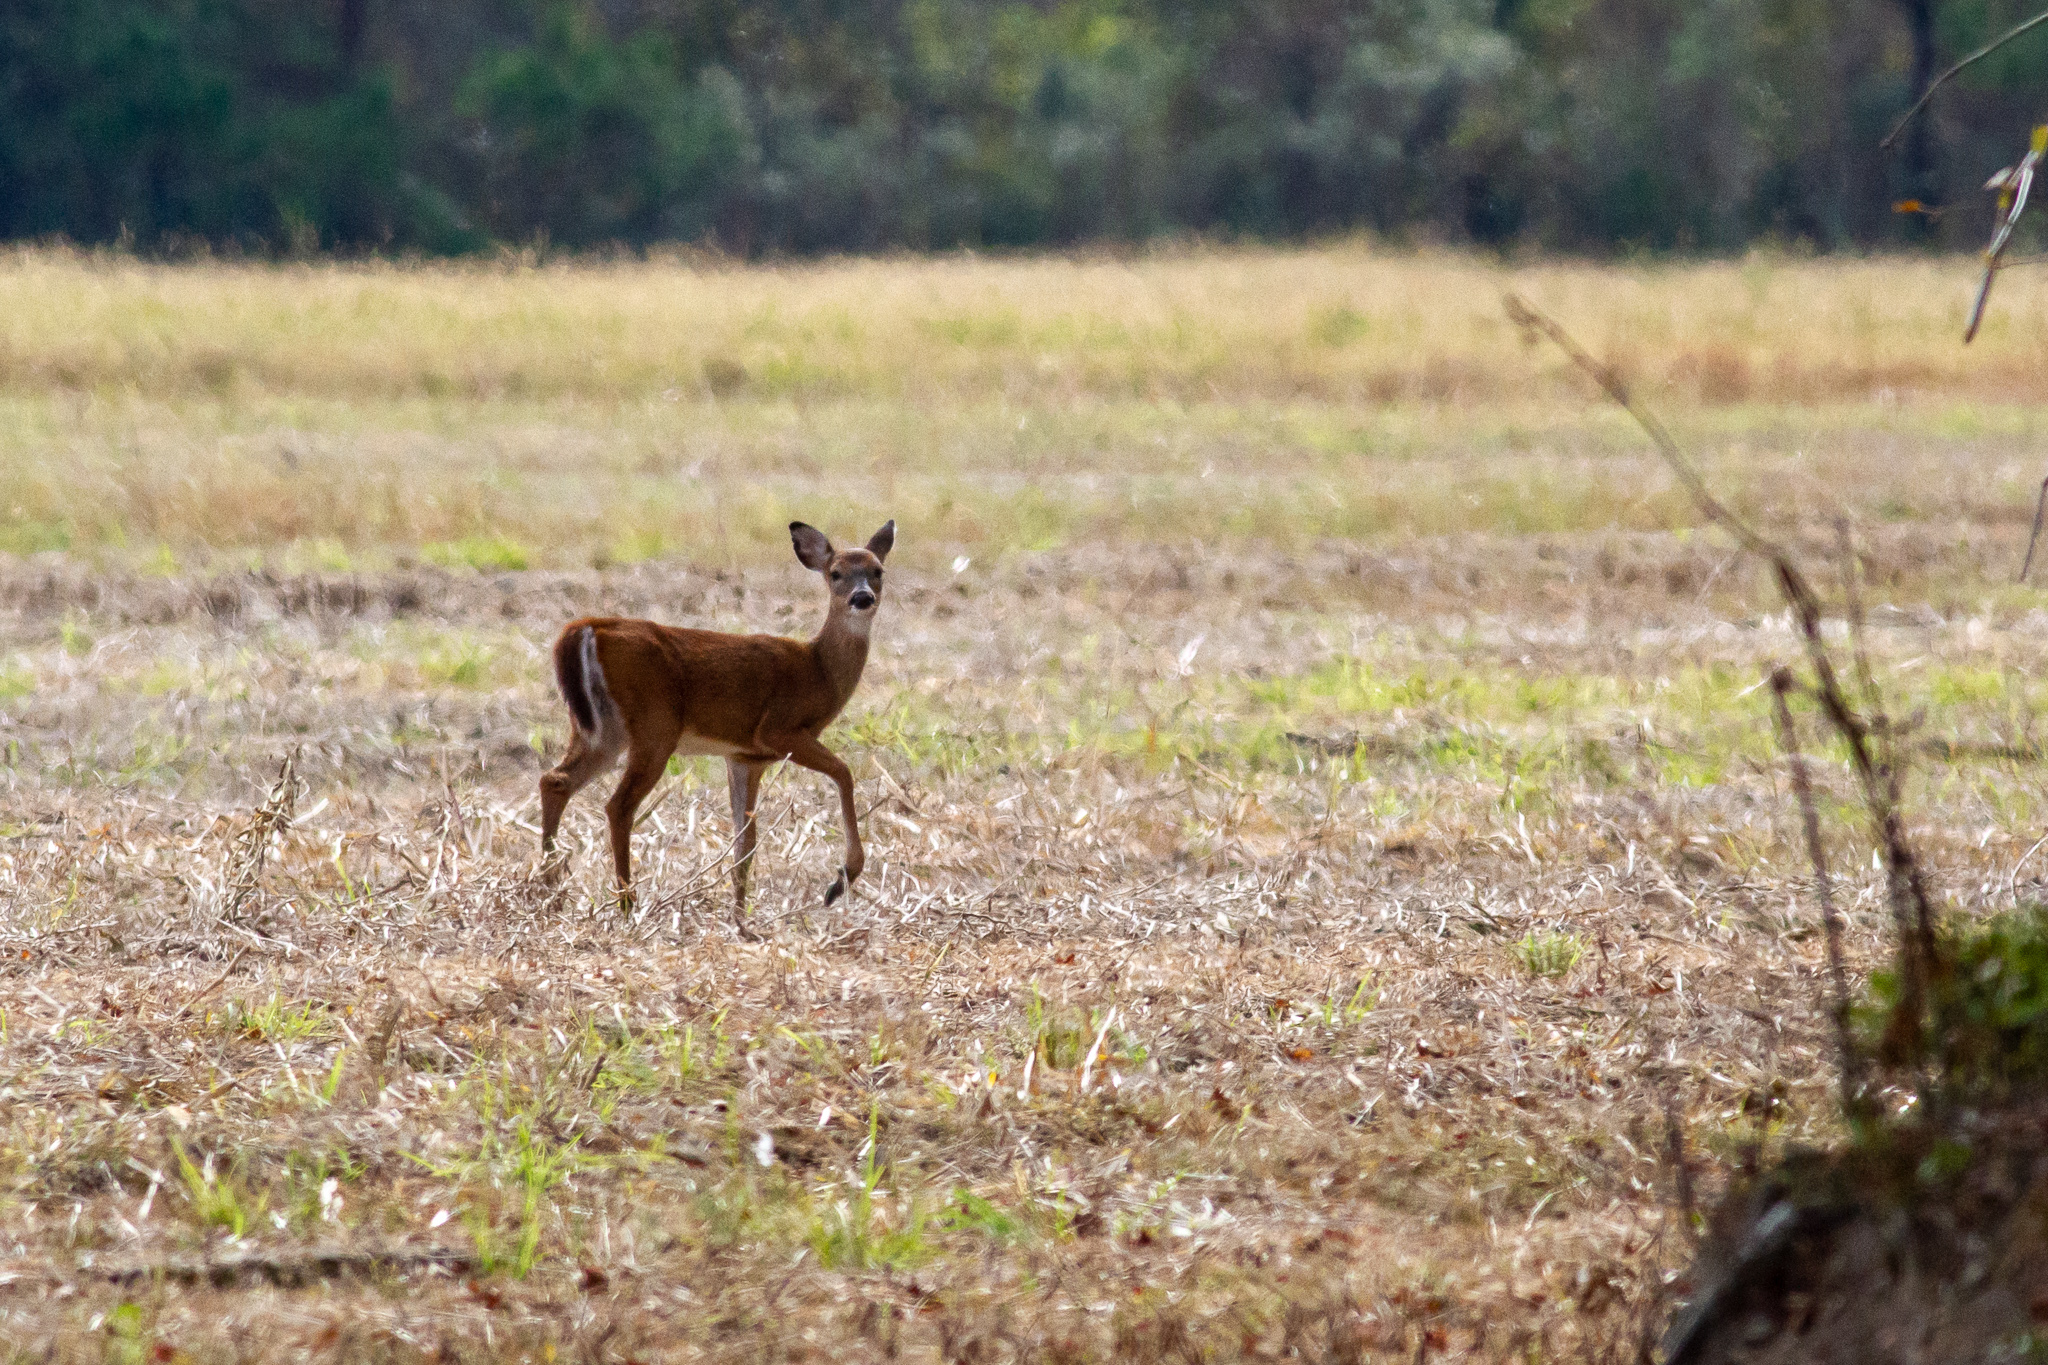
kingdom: Animalia
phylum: Chordata
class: Mammalia
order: Artiodactyla
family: Cervidae
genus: Odocoileus
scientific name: Odocoileus virginianus
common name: White-tailed deer
